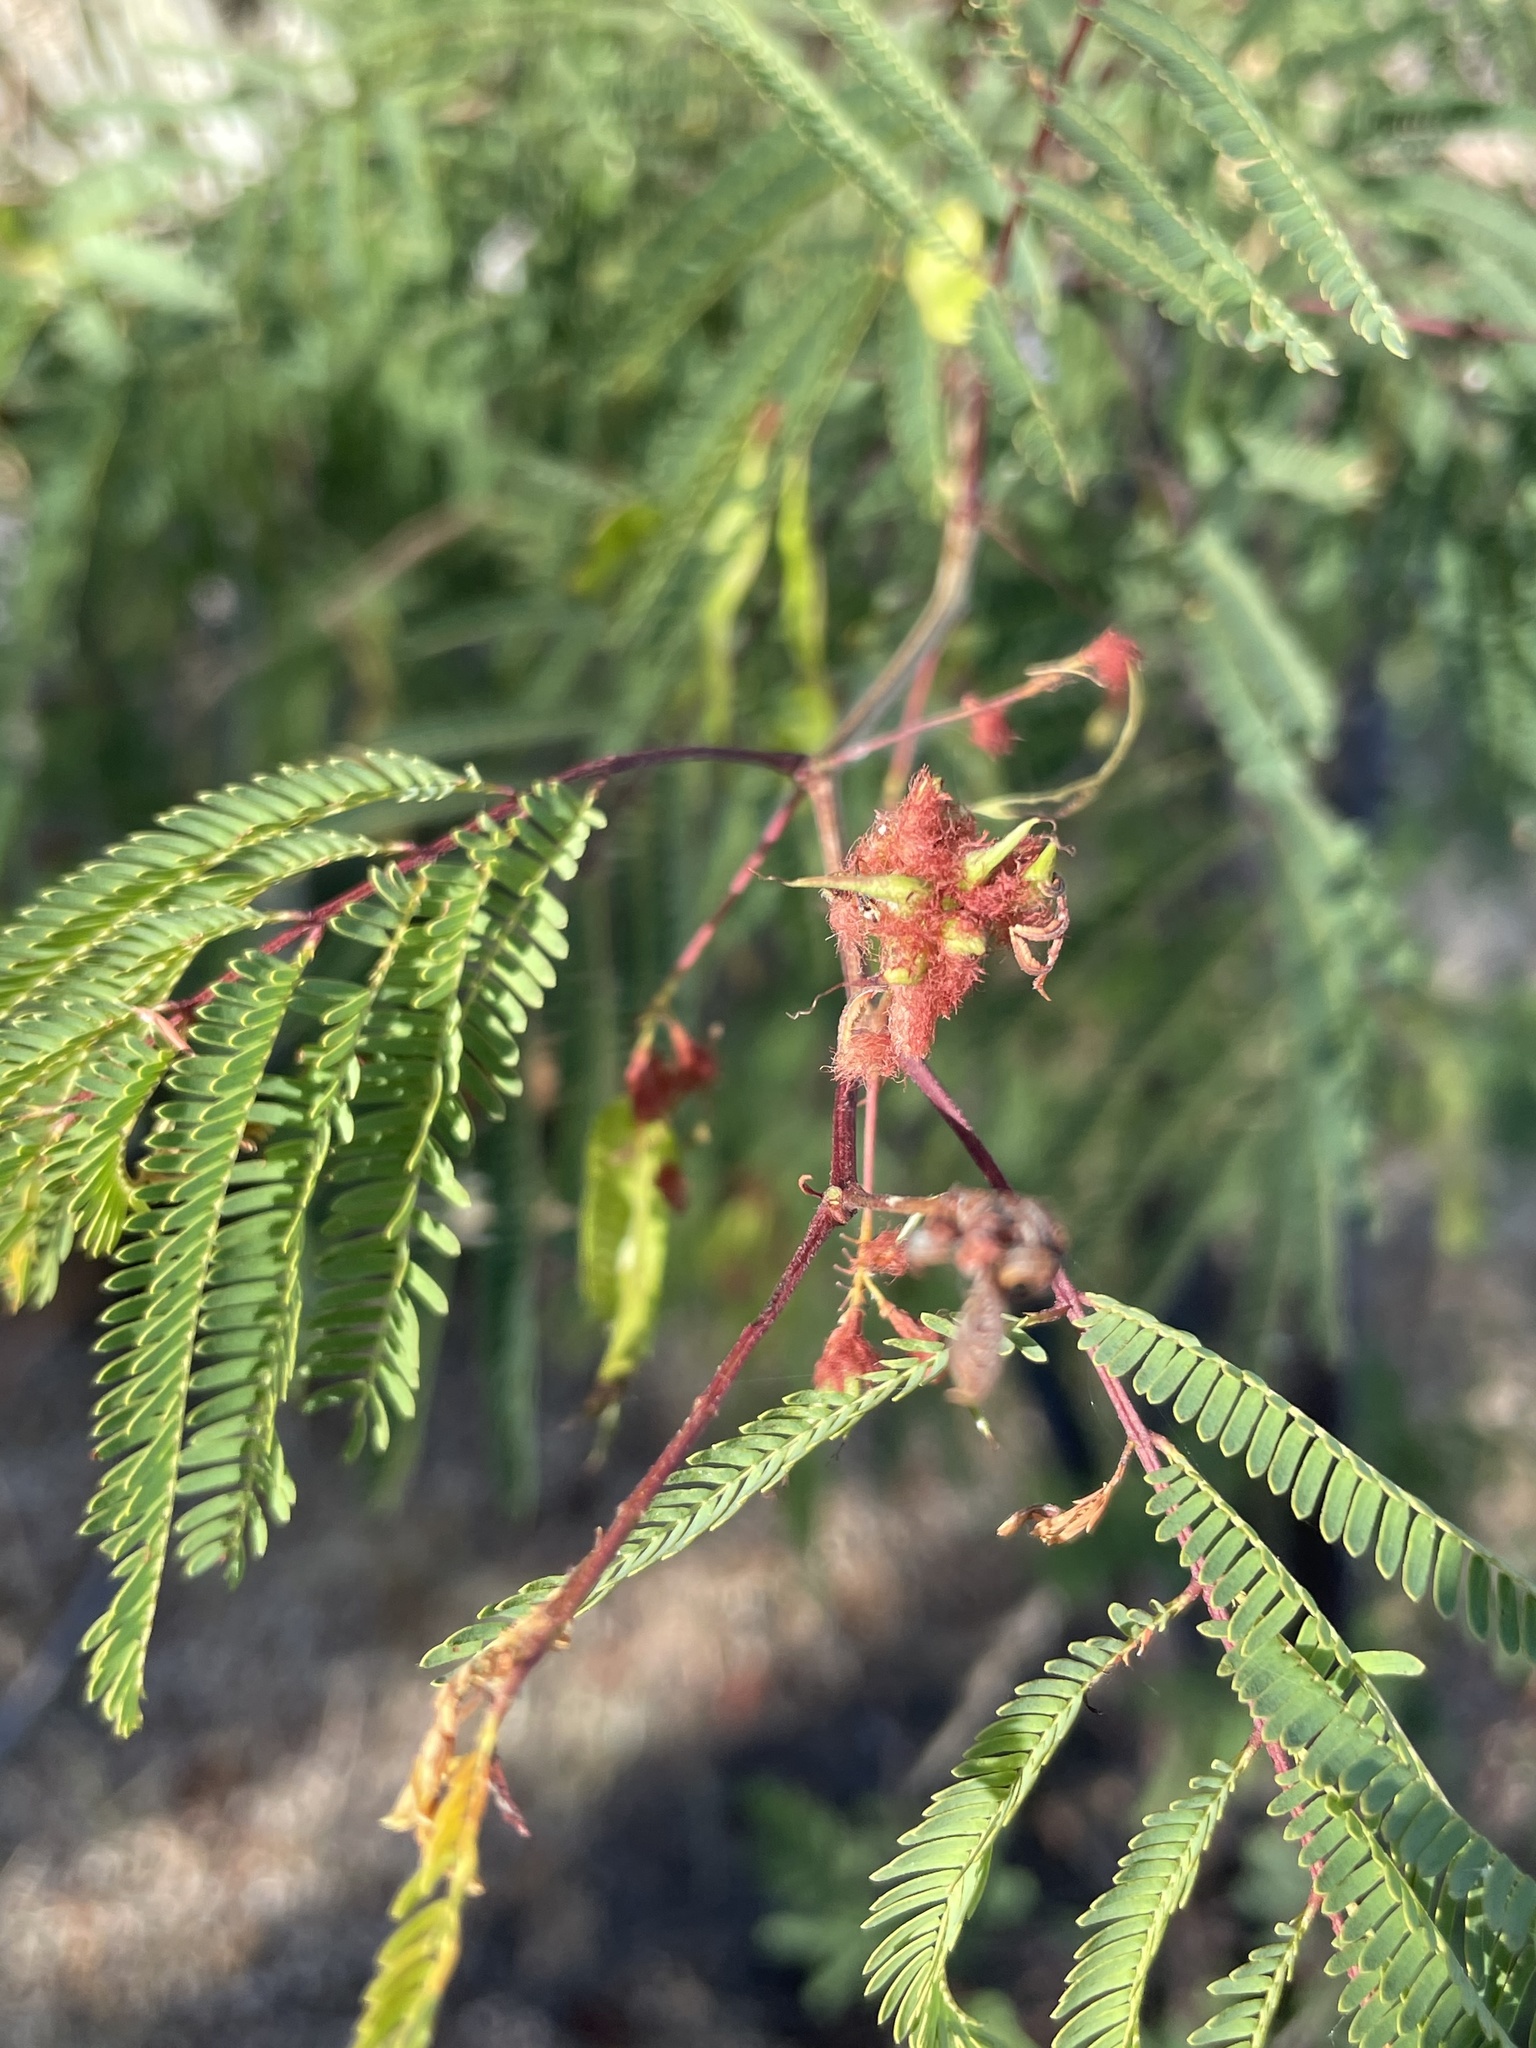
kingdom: Plantae
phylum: Tracheophyta
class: Magnoliopsida
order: Fabales
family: Fabaceae
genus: Acaciella
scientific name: Acaciella goldmanii
